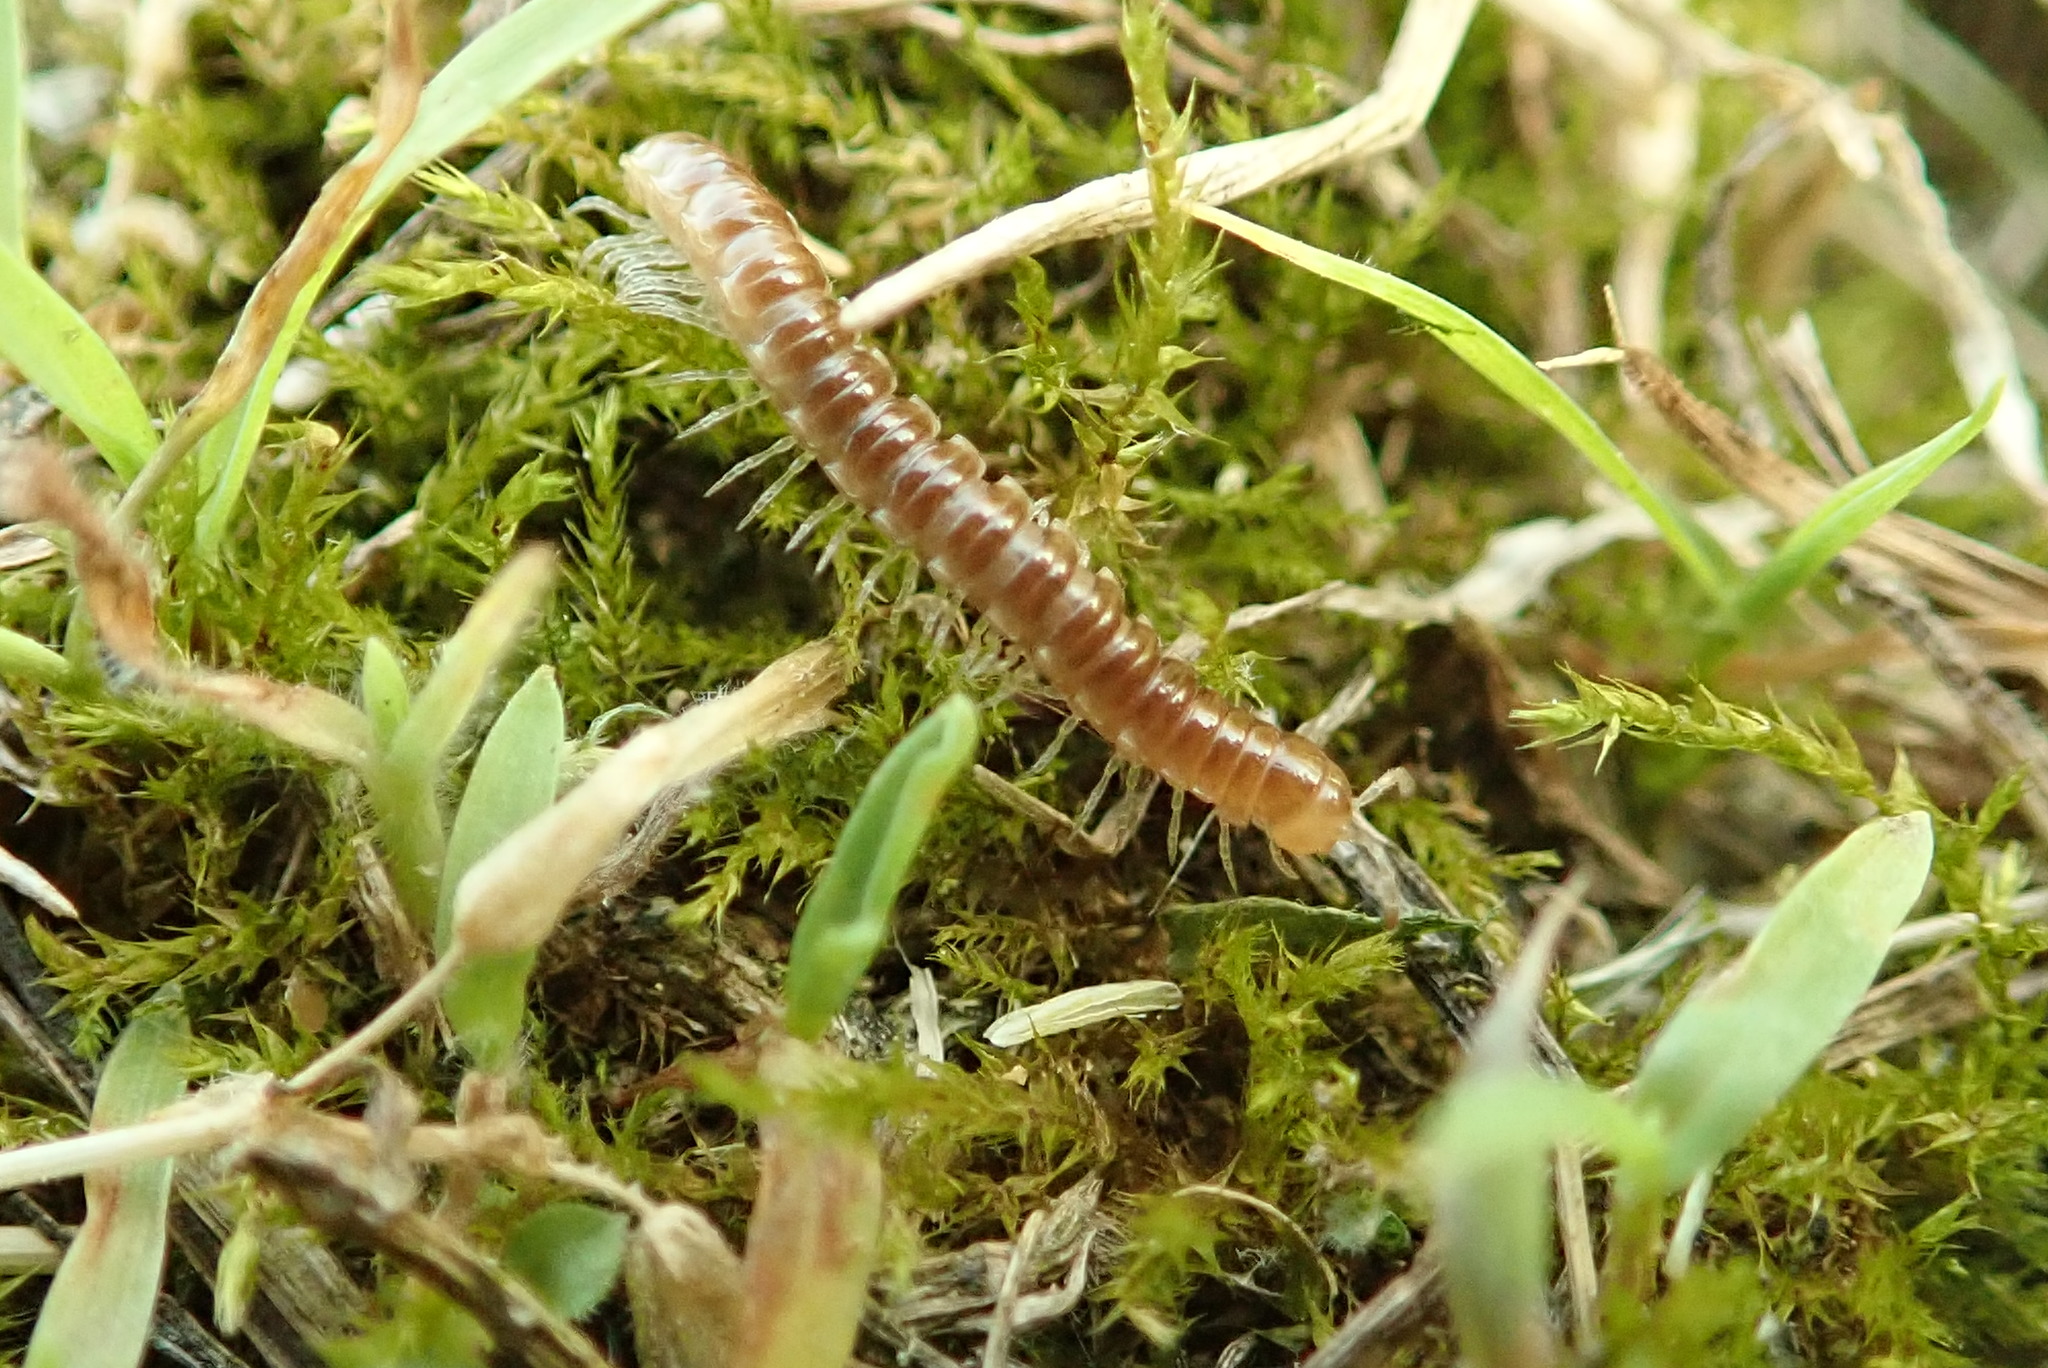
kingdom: Animalia
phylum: Arthropoda
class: Diplopoda
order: Polydesmida
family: Paradoxosomatidae
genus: Oxidus
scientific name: Oxidus gracilis
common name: Greenhouse millipede
